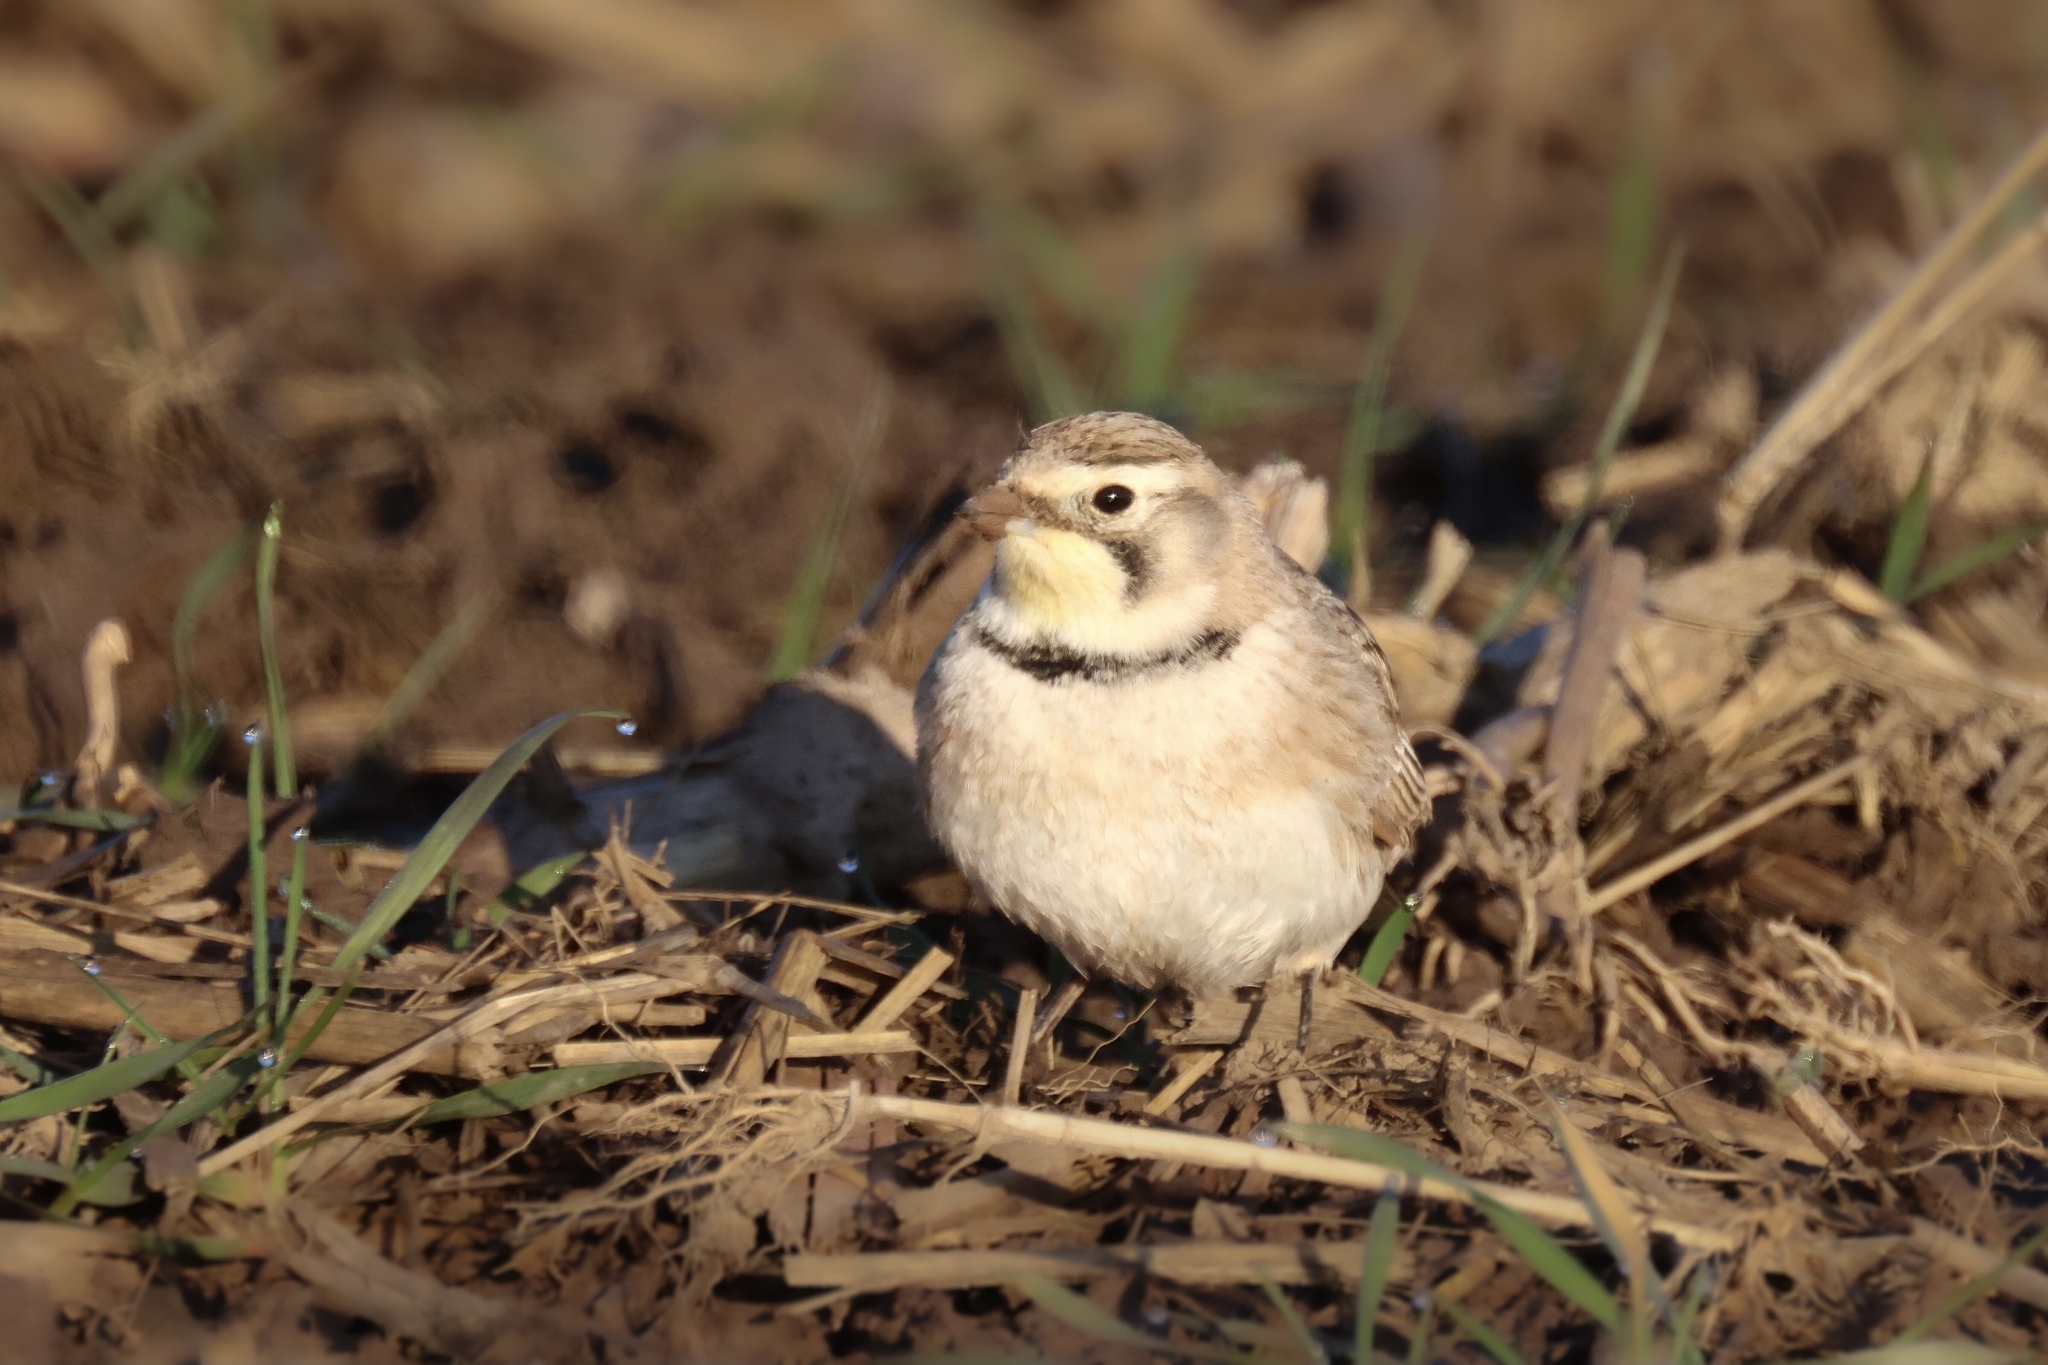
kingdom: Animalia
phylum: Chordata
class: Aves
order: Passeriformes
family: Alaudidae
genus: Eremophila
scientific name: Eremophila alpestris
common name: Horned lark
